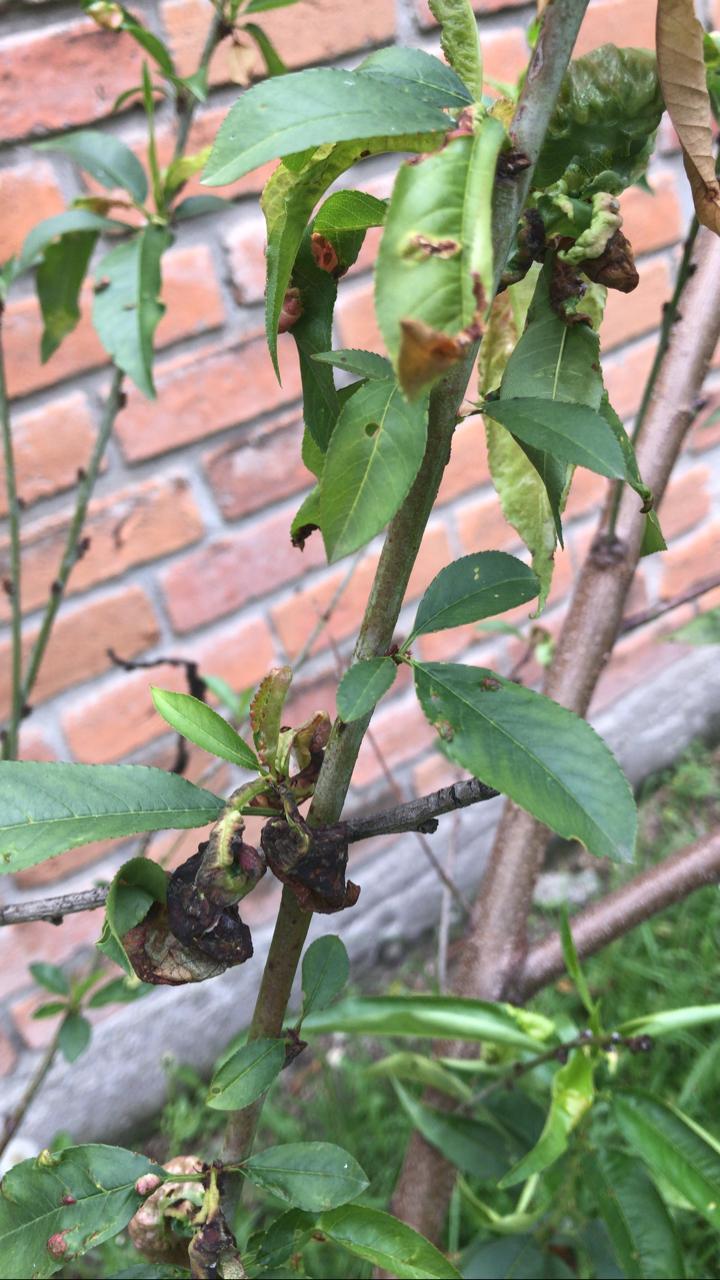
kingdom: Fungi
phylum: Ascomycota
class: Taphrinomycetes
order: Taphrinales
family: Taphrinaceae
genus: Taphrina
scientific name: Taphrina deformans
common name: Peach leaf curl
